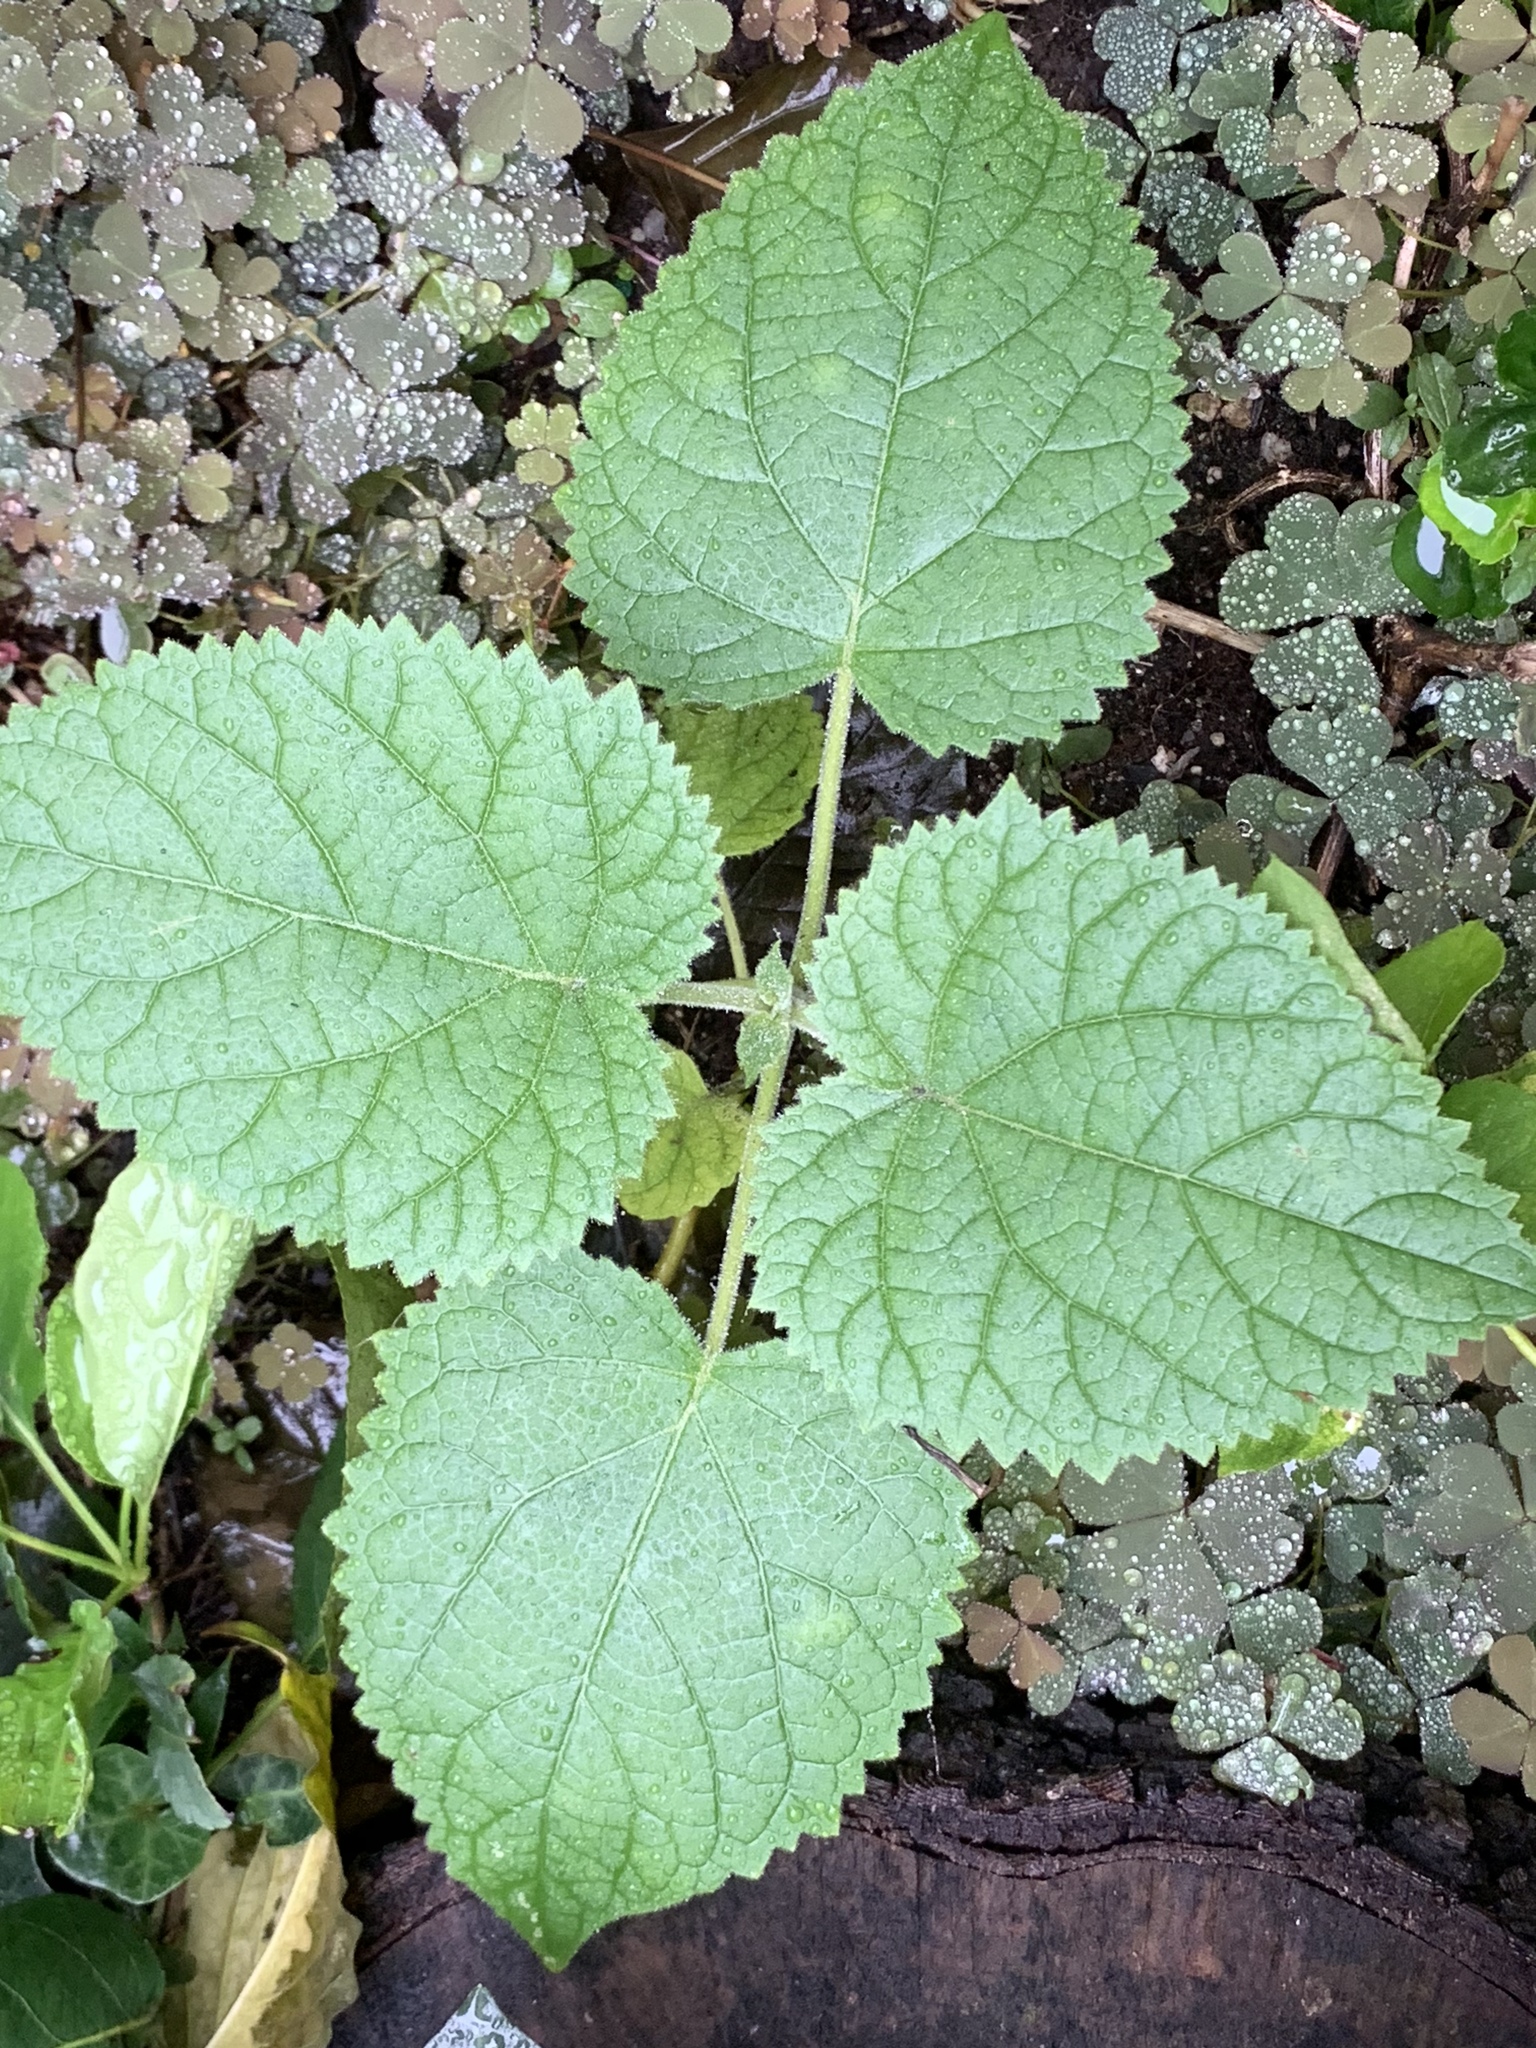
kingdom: Plantae
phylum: Tracheophyta
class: Magnoliopsida
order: Lamiales
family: Paulowniaceae
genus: Paulownia
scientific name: Paulownia tomentosa
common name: Foxglove-tree
